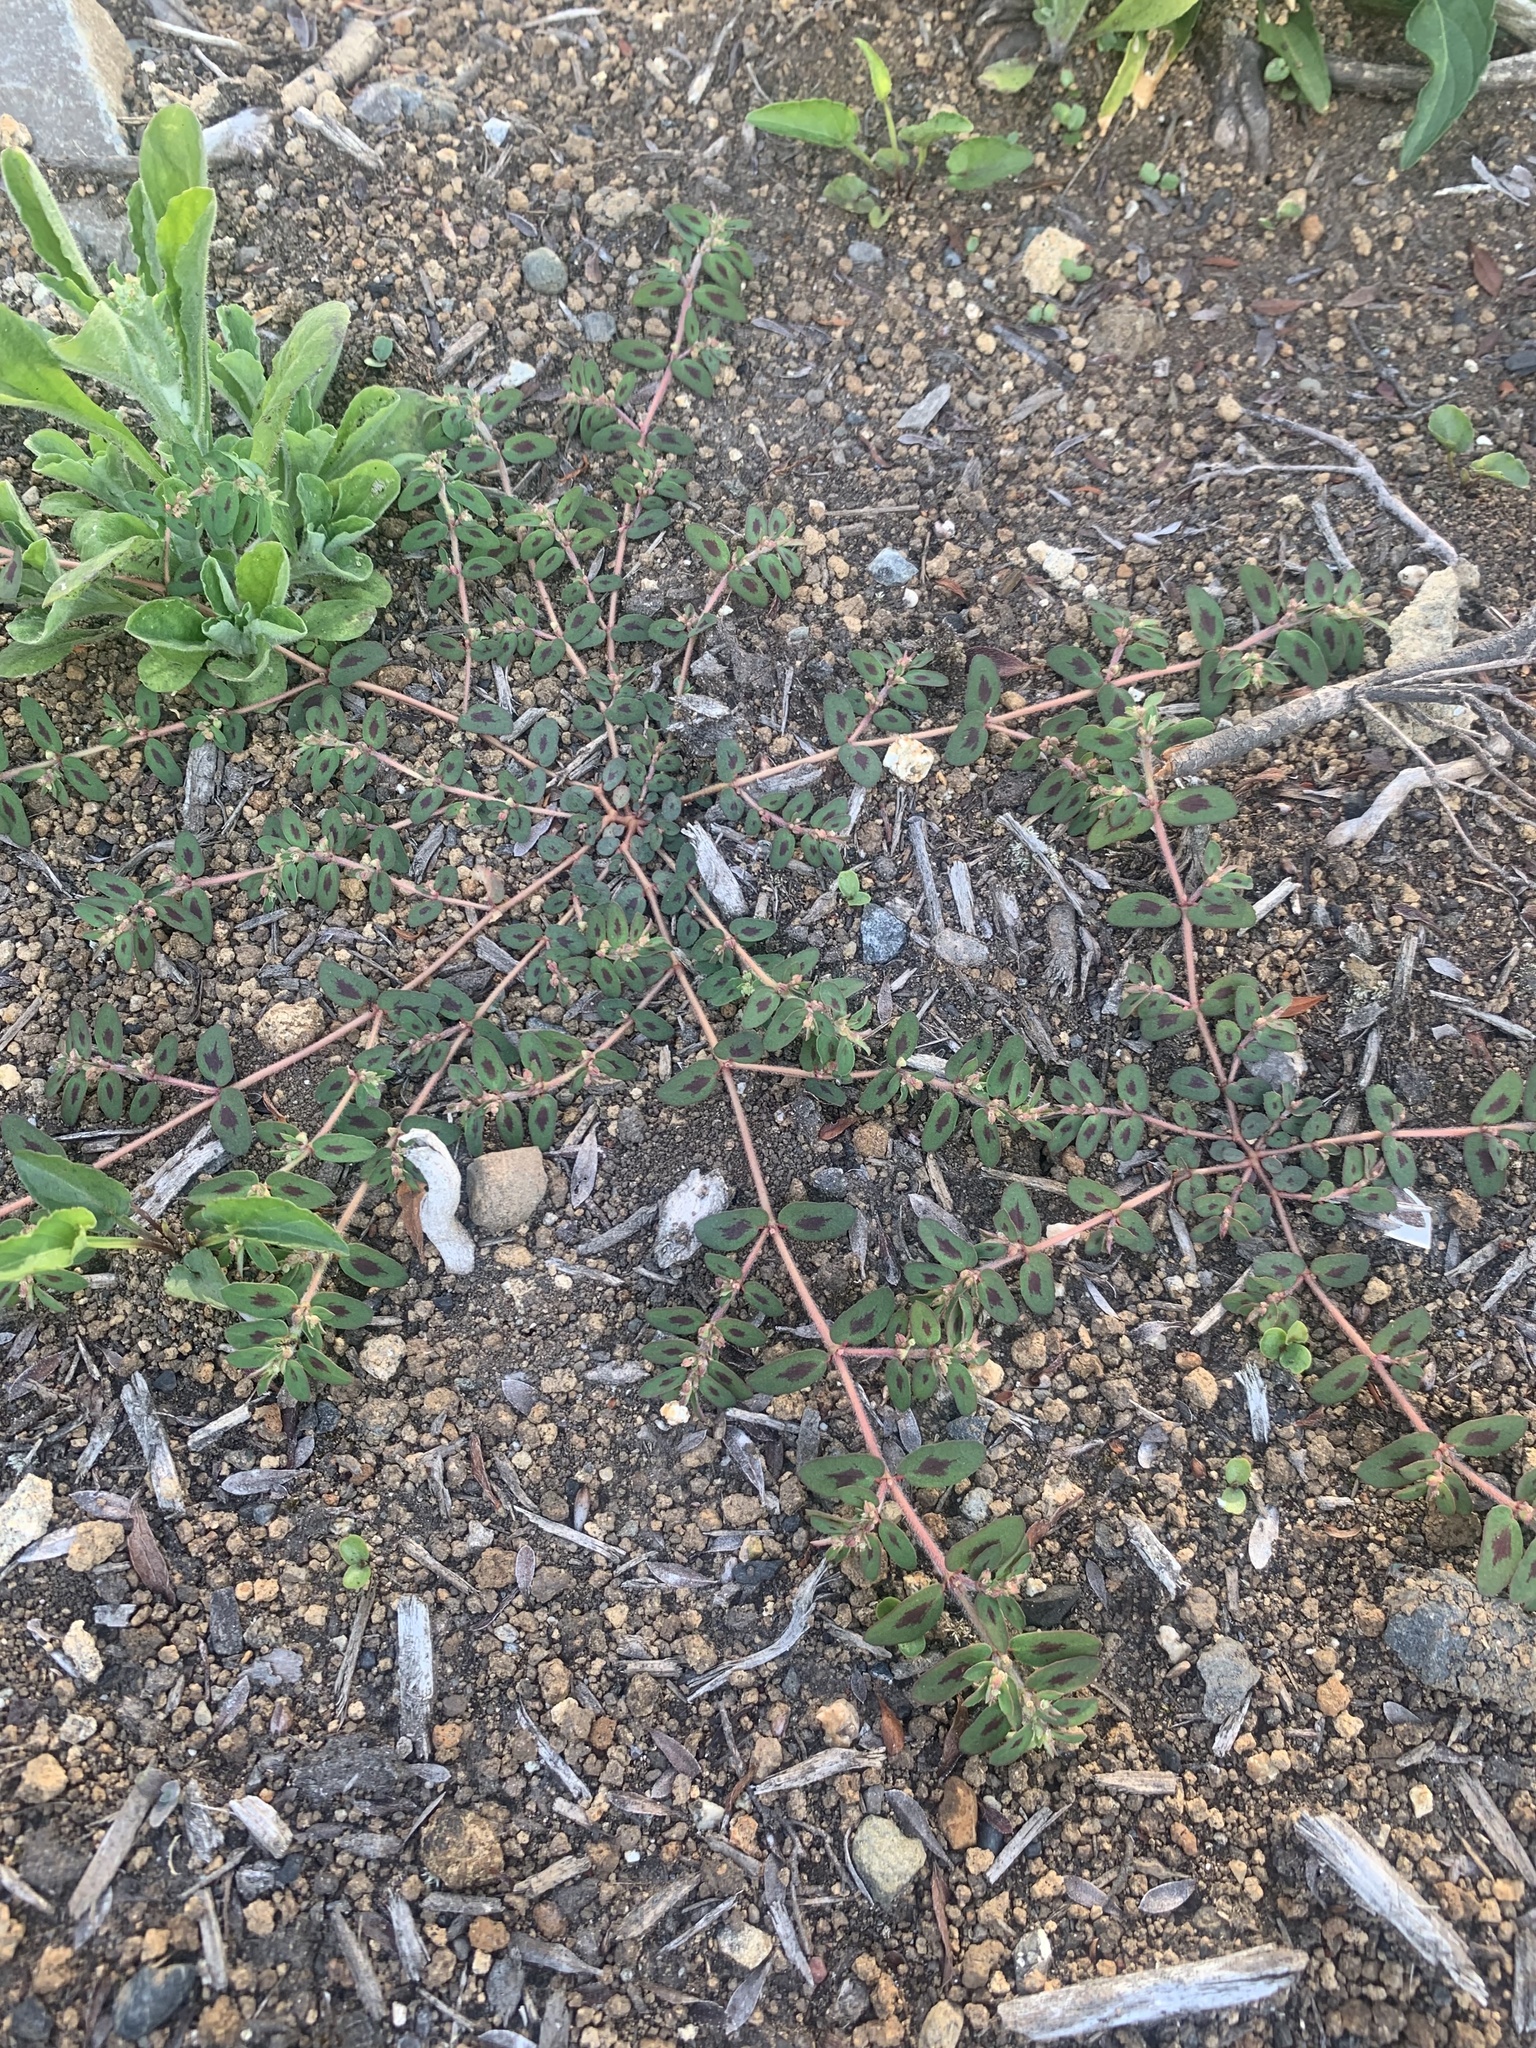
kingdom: Plantae
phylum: Tracheophyta
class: Magnoliopsida
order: Malpighiales
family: Euphorbiaceae
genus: Euphorbia
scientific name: Euphorbia maculata
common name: Spotted spurge
